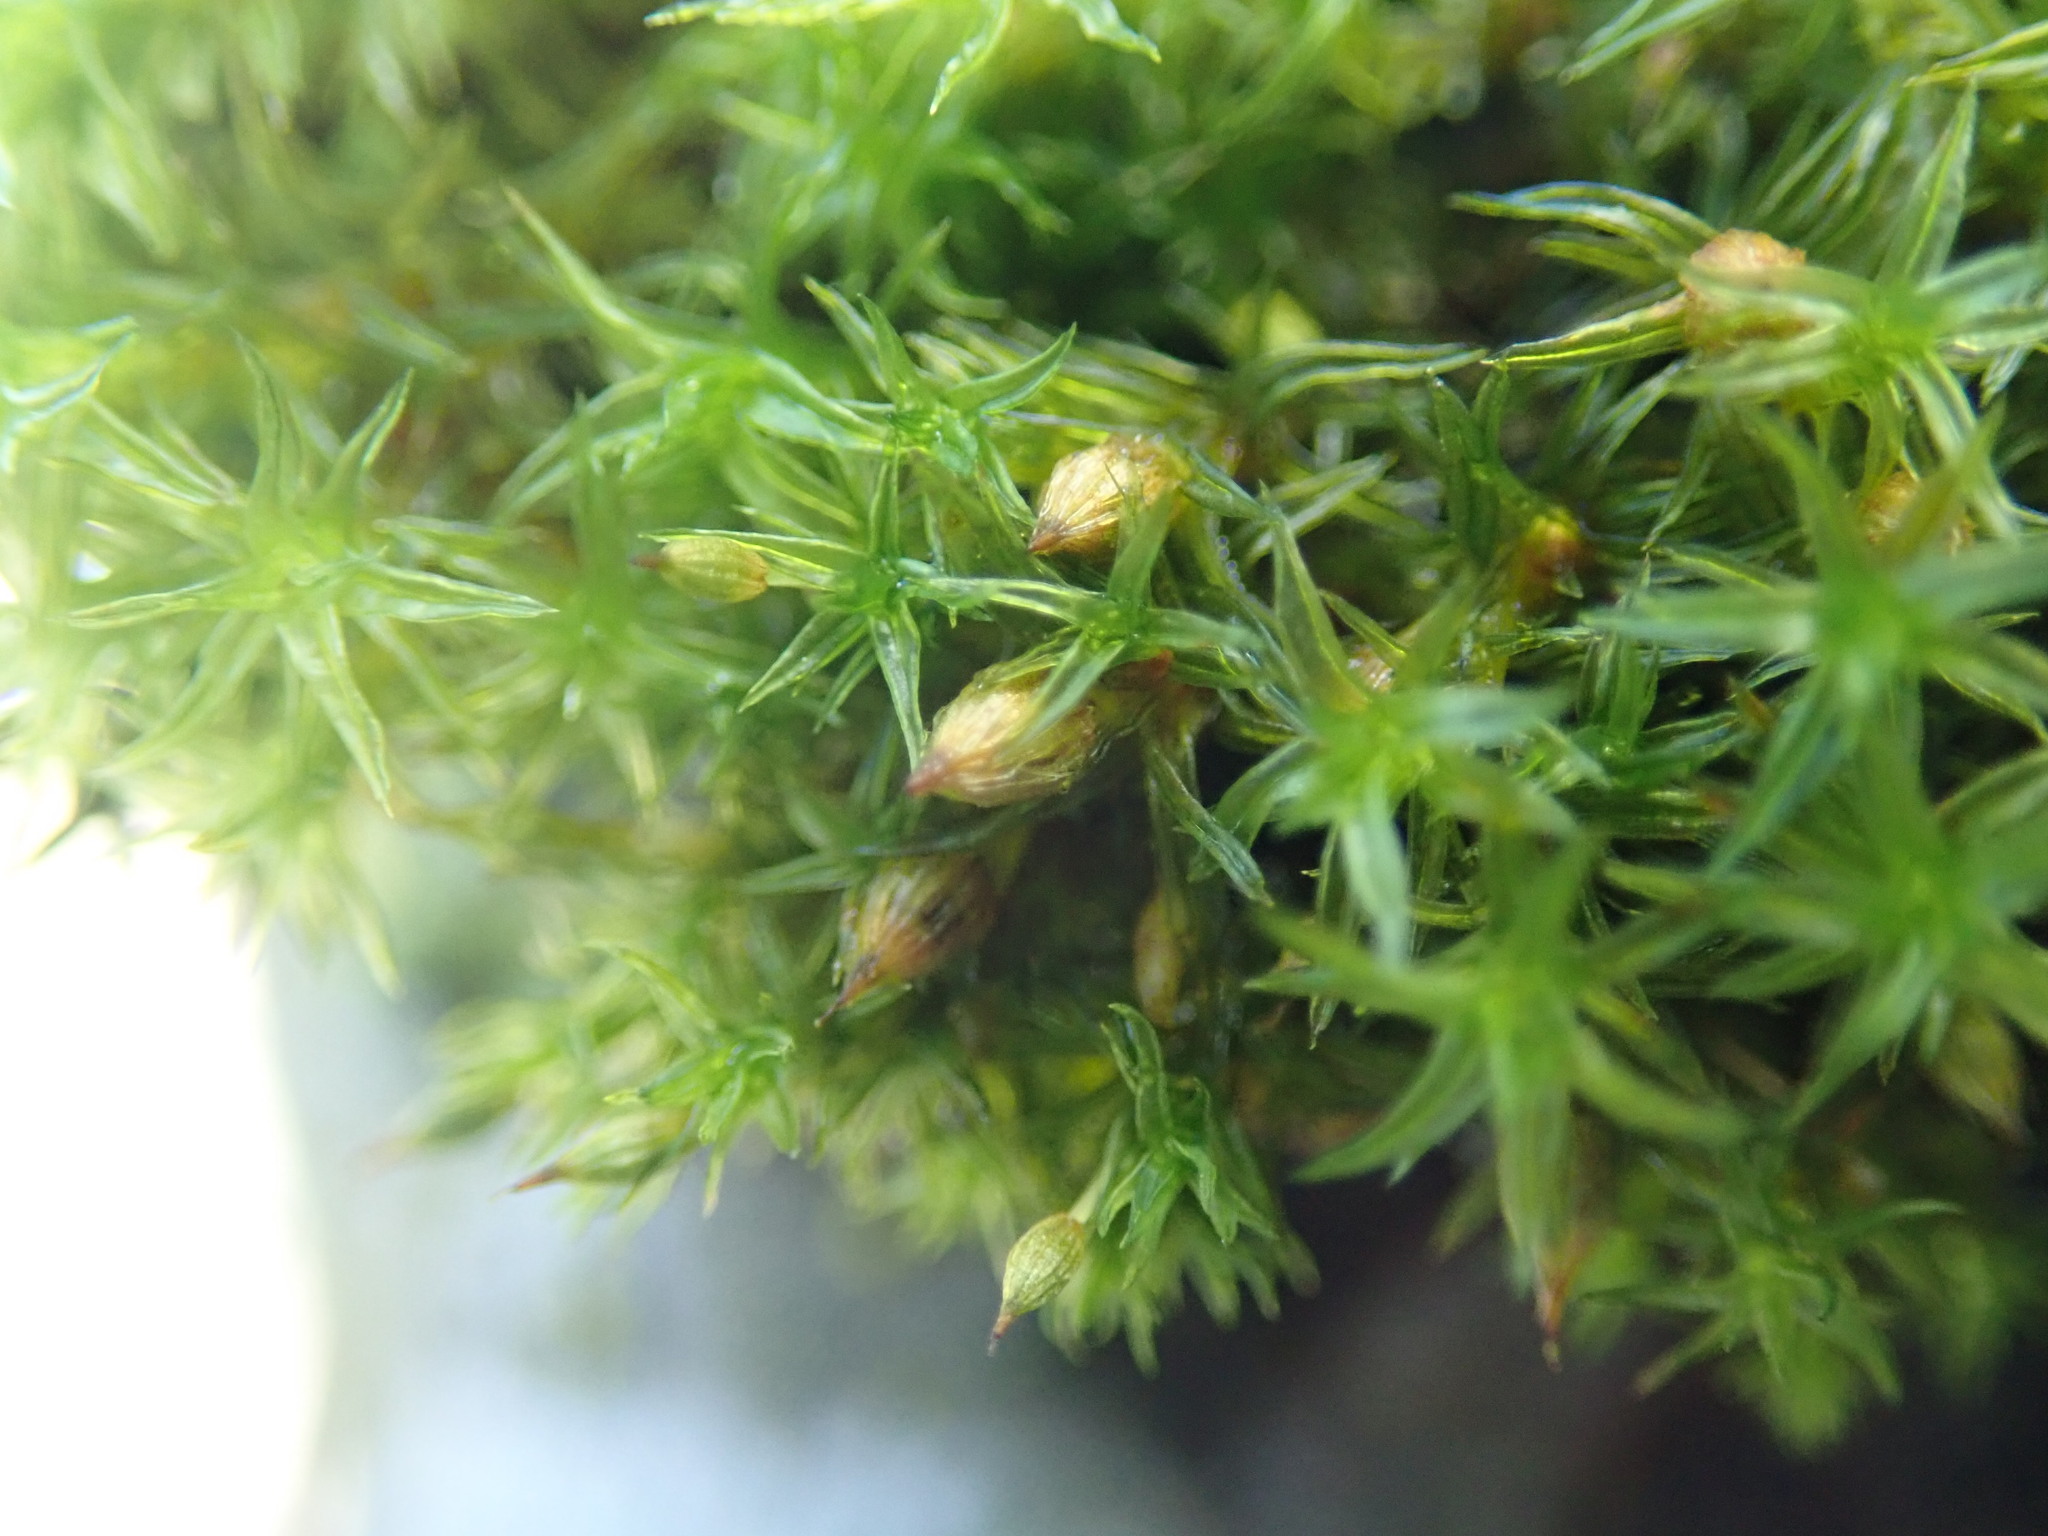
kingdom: Plantae
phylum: Bryophyta
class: Bryopsida
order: Orthotrichales
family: Orthotrichaceae
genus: Pulvigera
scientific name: Pulvigera lyellii
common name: Lyell's bristle-moss
